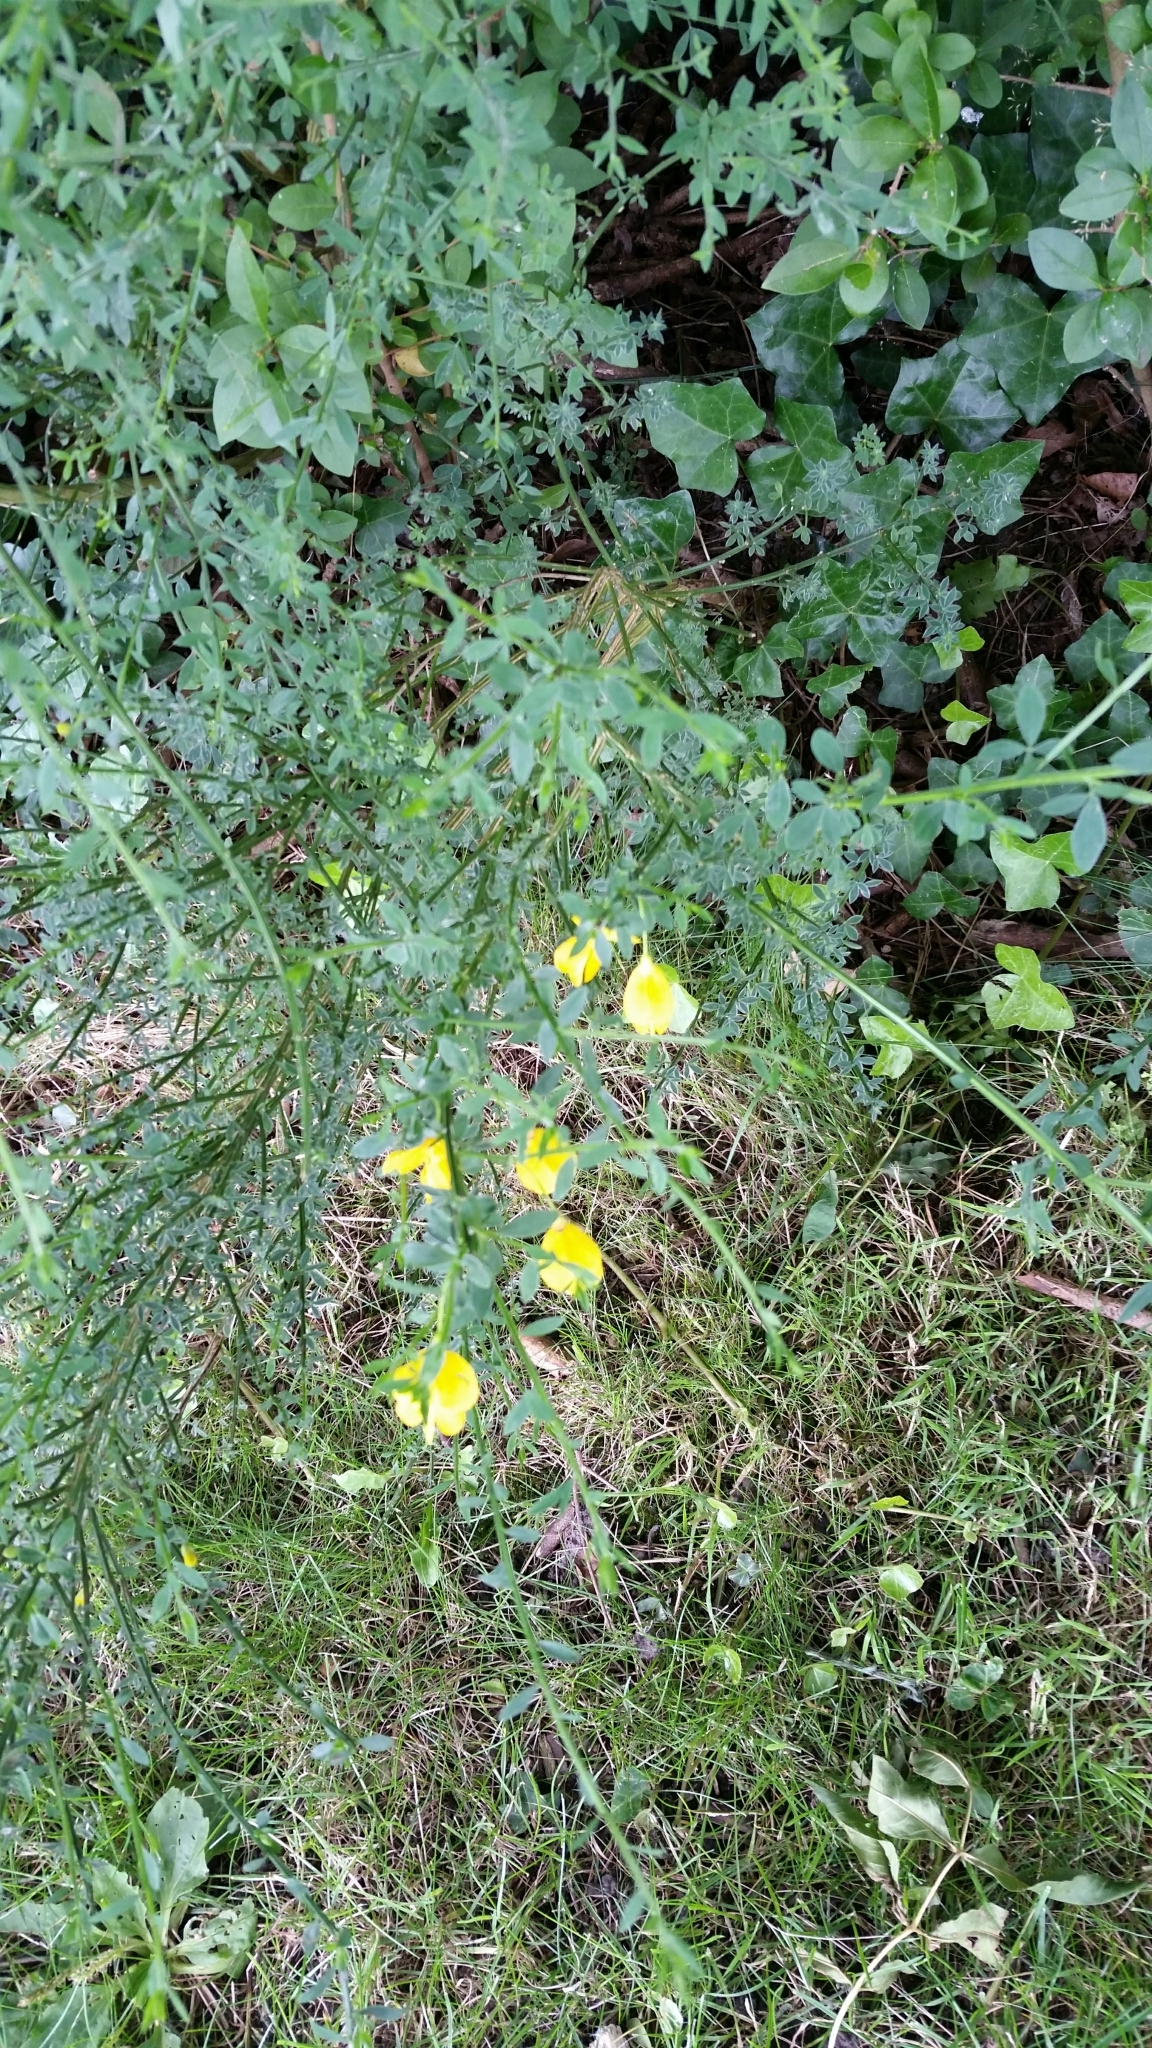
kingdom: Plantae
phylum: Tracheophyta
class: Magnoliopsida
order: Fabales
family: Fabaceae
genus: Cytisus
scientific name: Cytisus scoparius
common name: Scotch broom
